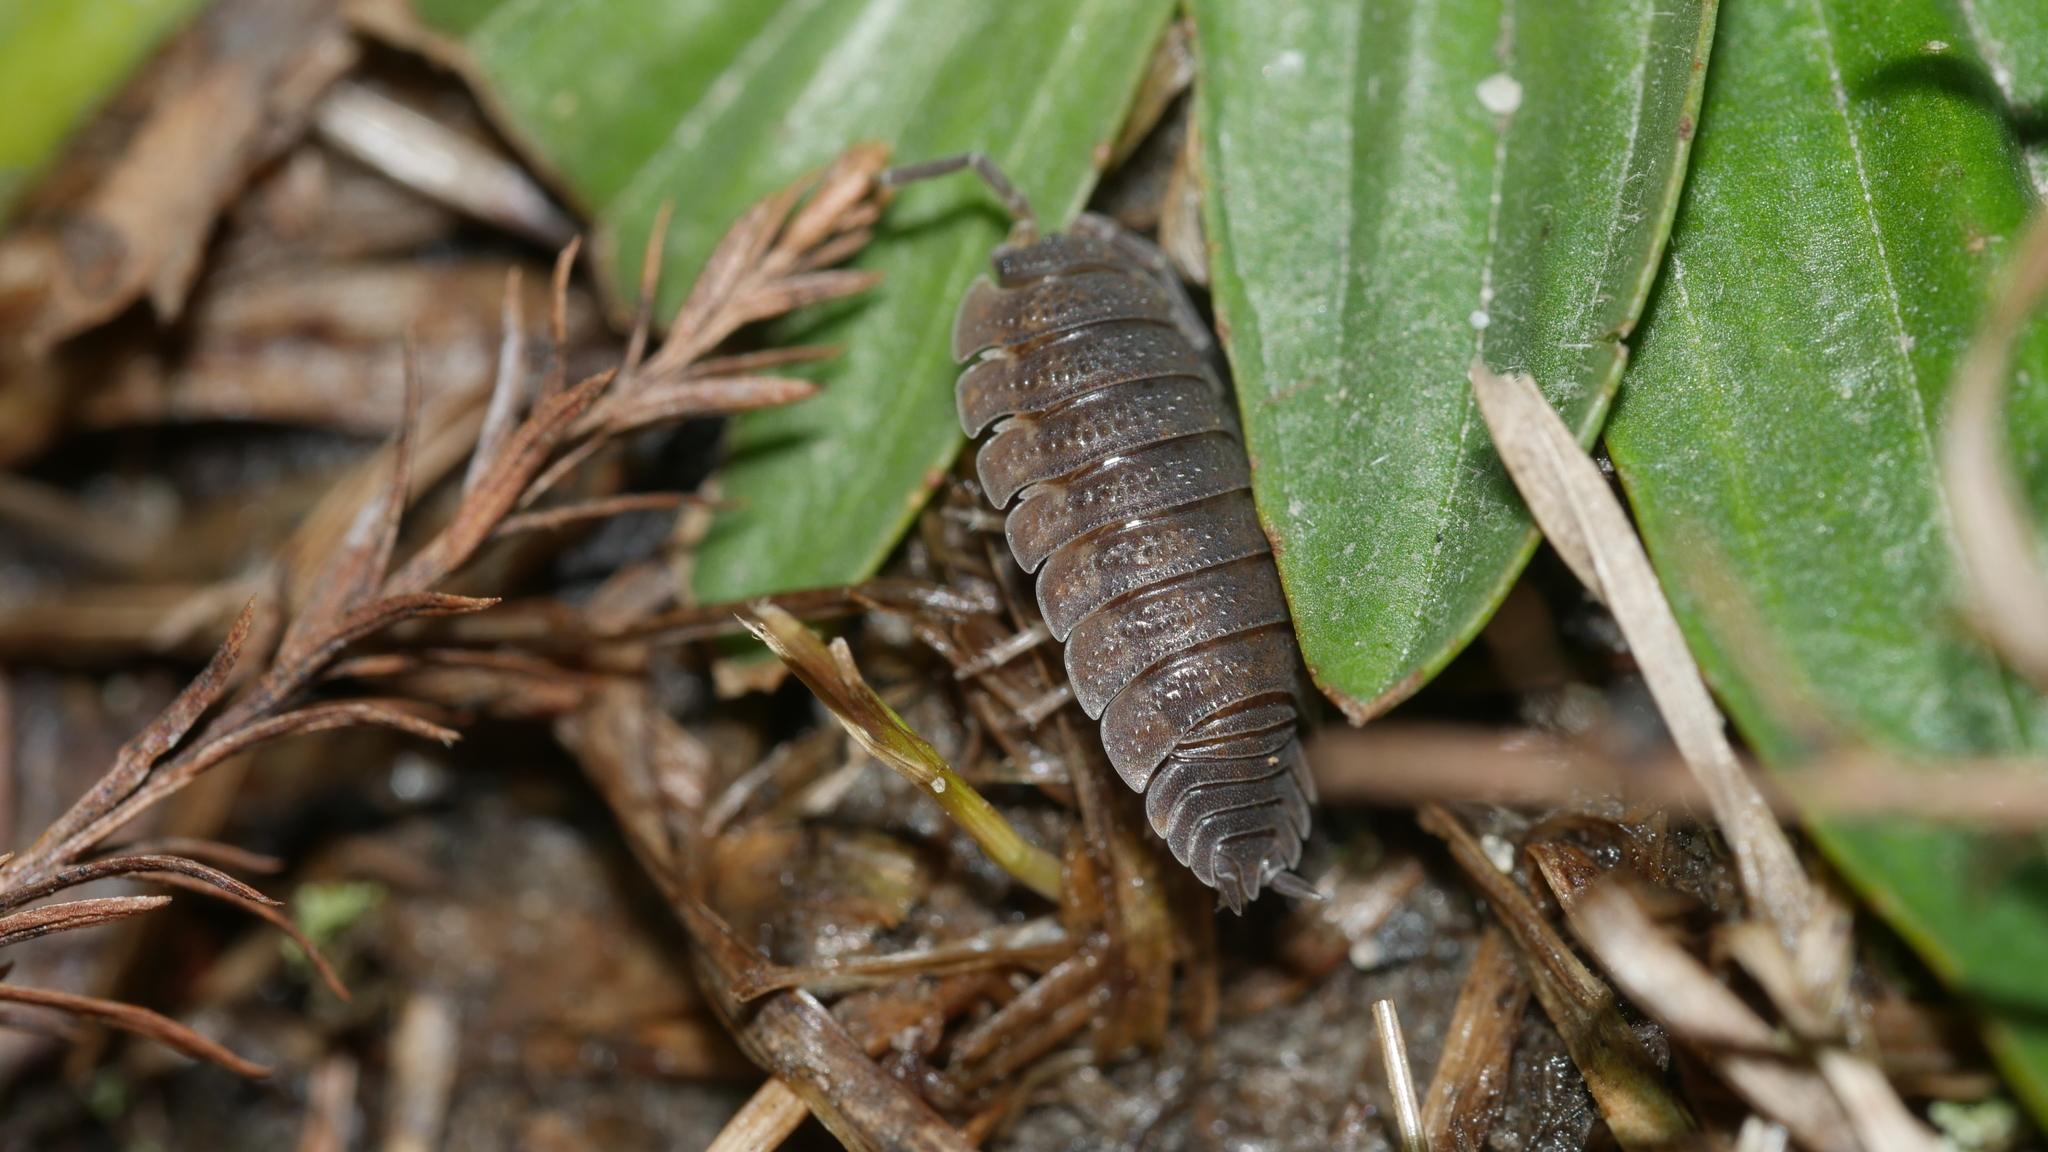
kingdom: Animalia
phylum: Arthropoda
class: Malacostraca
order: Isopoda
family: Porcellionidae
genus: Porcellio
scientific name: Porcellio scaber
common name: Common rough woodlouse
